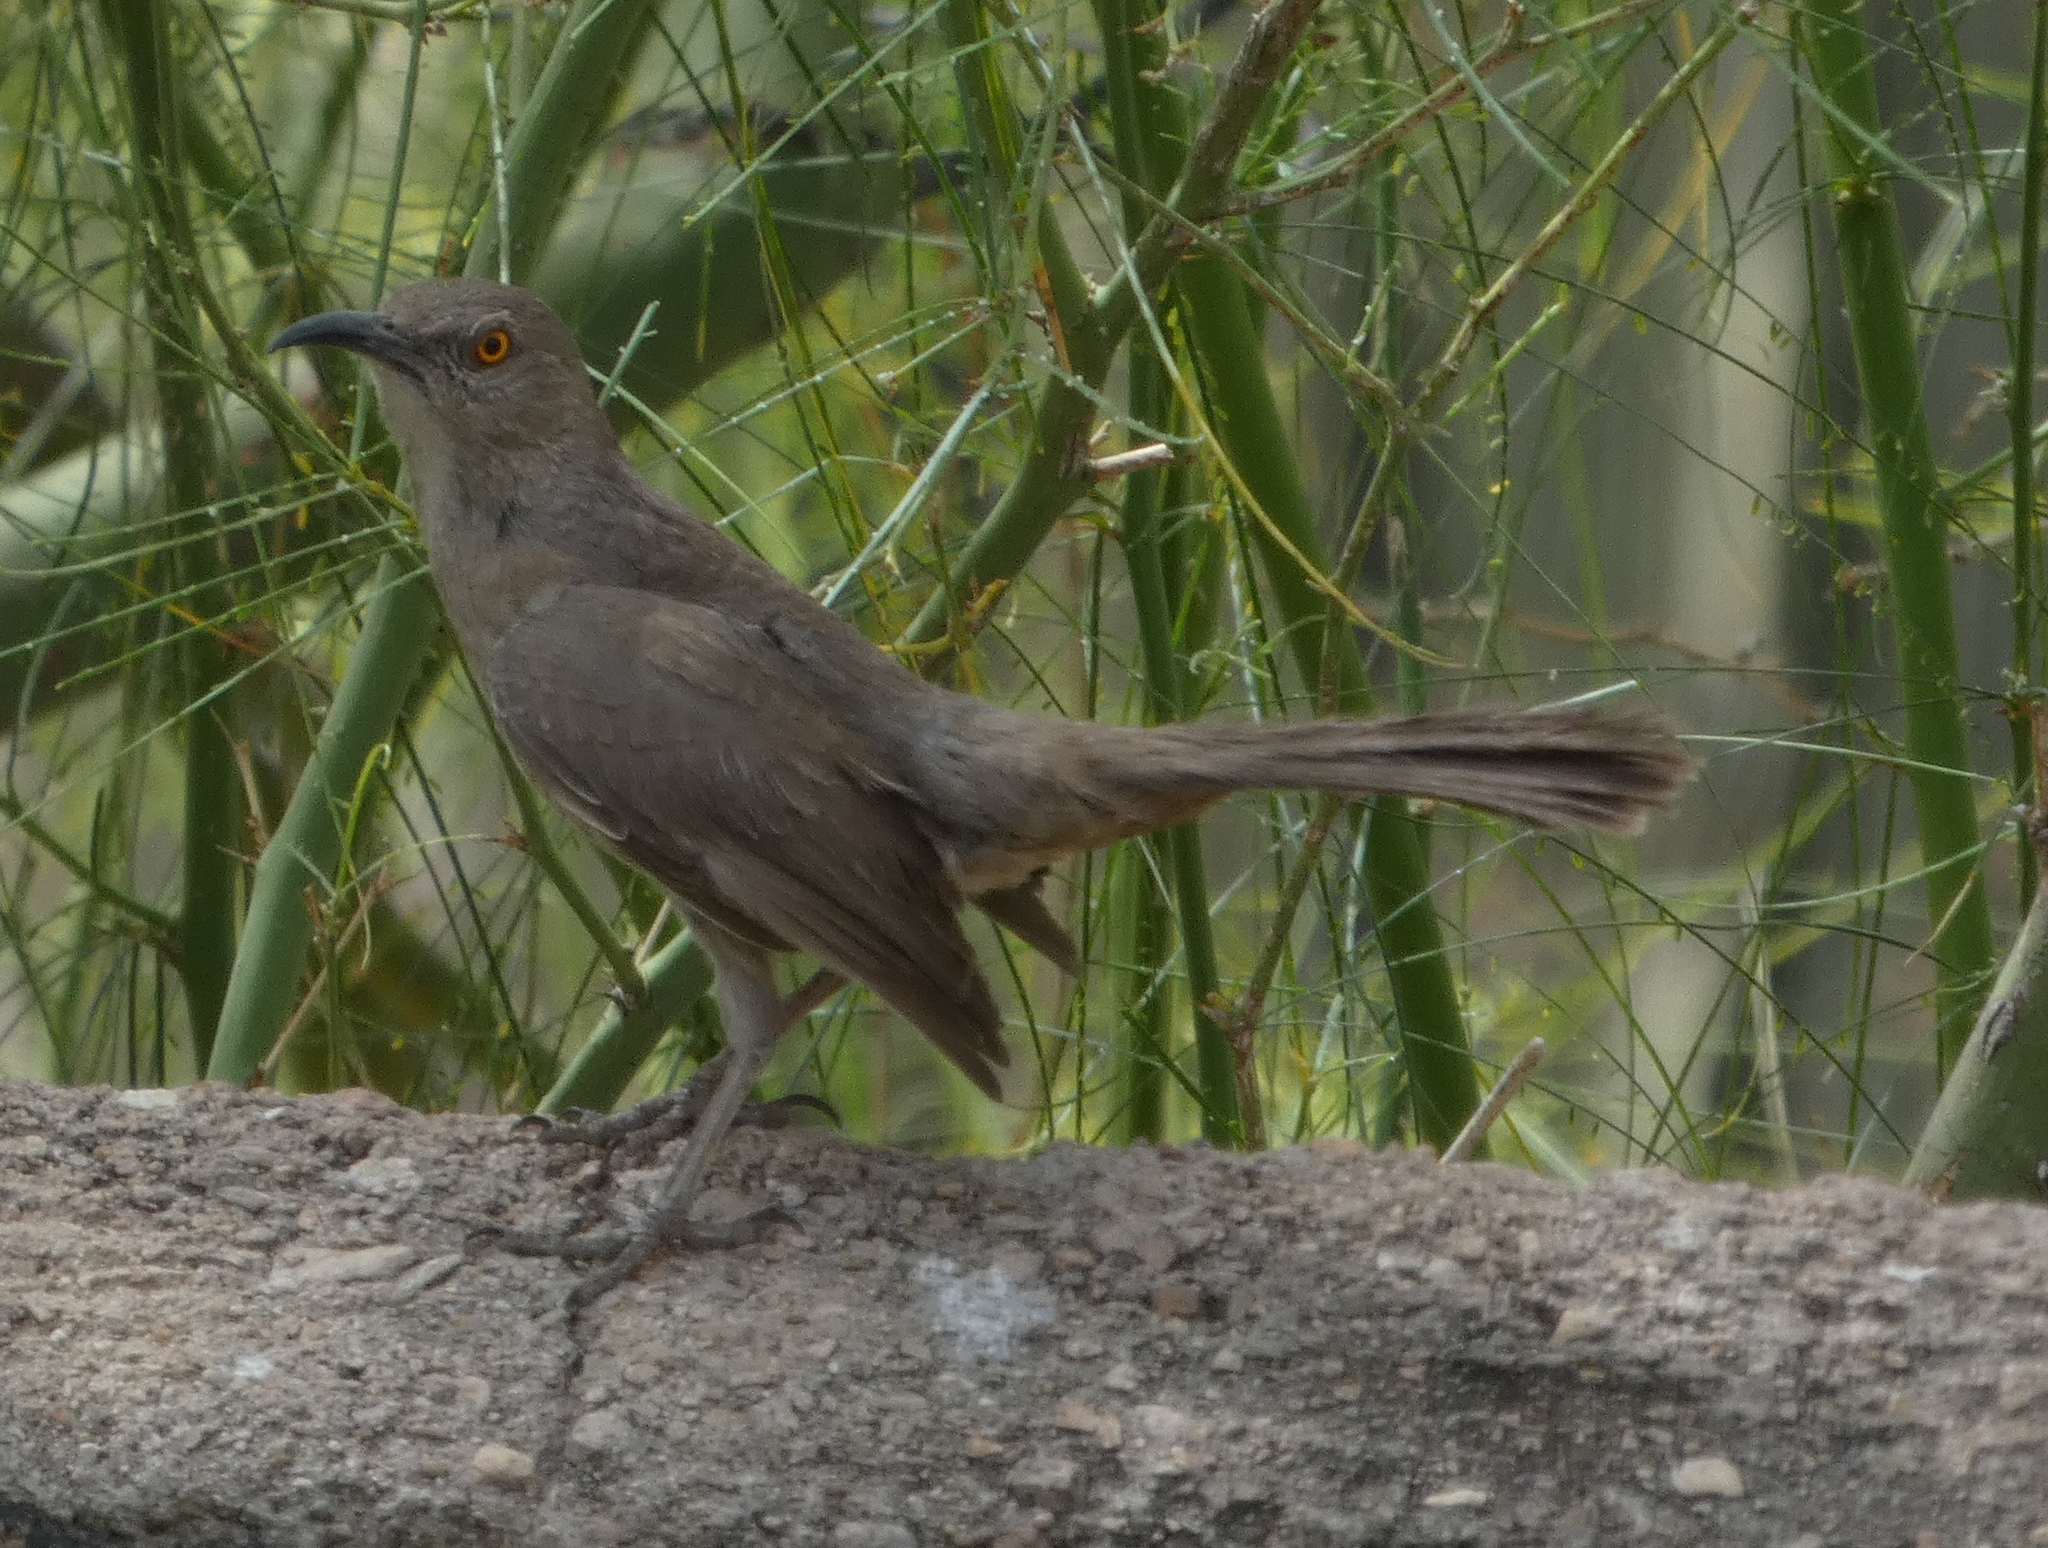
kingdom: Animalia
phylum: Chordata
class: Aves
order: Passeriformes
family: Mimidae
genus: Toxostoma
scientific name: Toxostoma curvirostre
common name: Curve-billed thrasher
